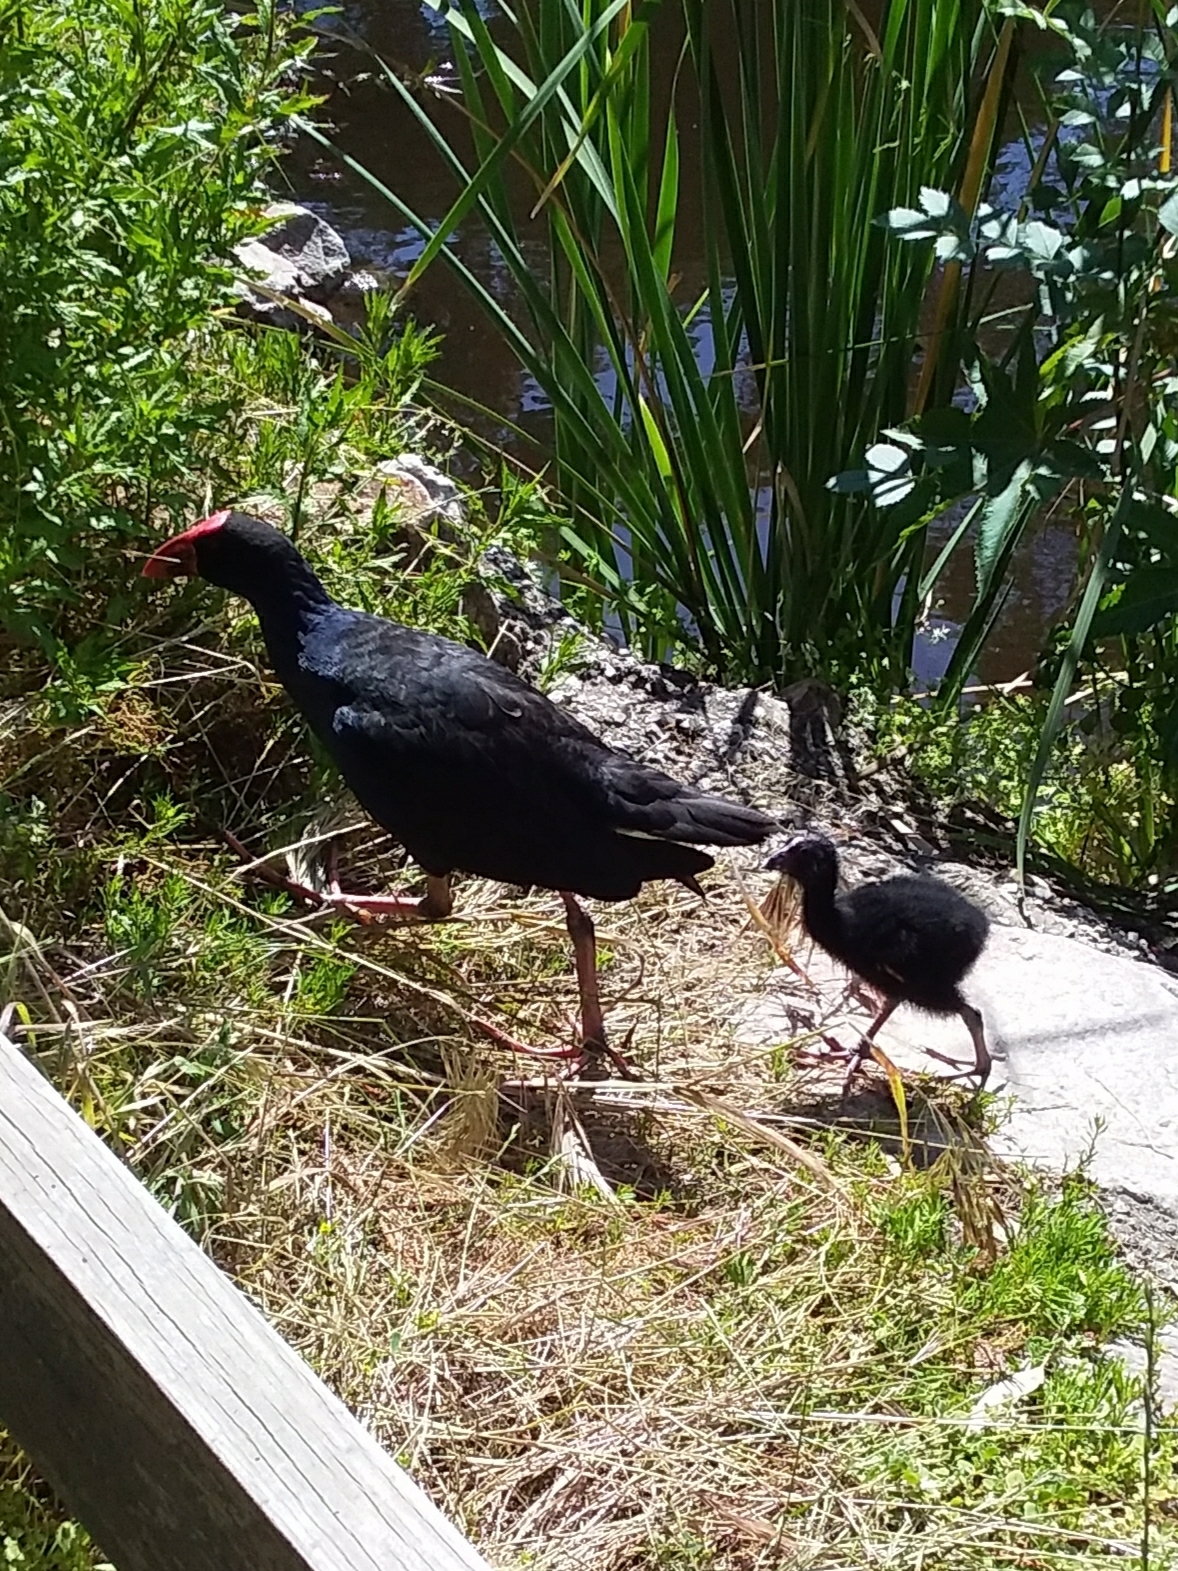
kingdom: Animalia
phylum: Chordata
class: Aves
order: Gruiformes
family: Rallidae
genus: Porphyrio
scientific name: Porphyrio melanotus
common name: Australasian swamphen
